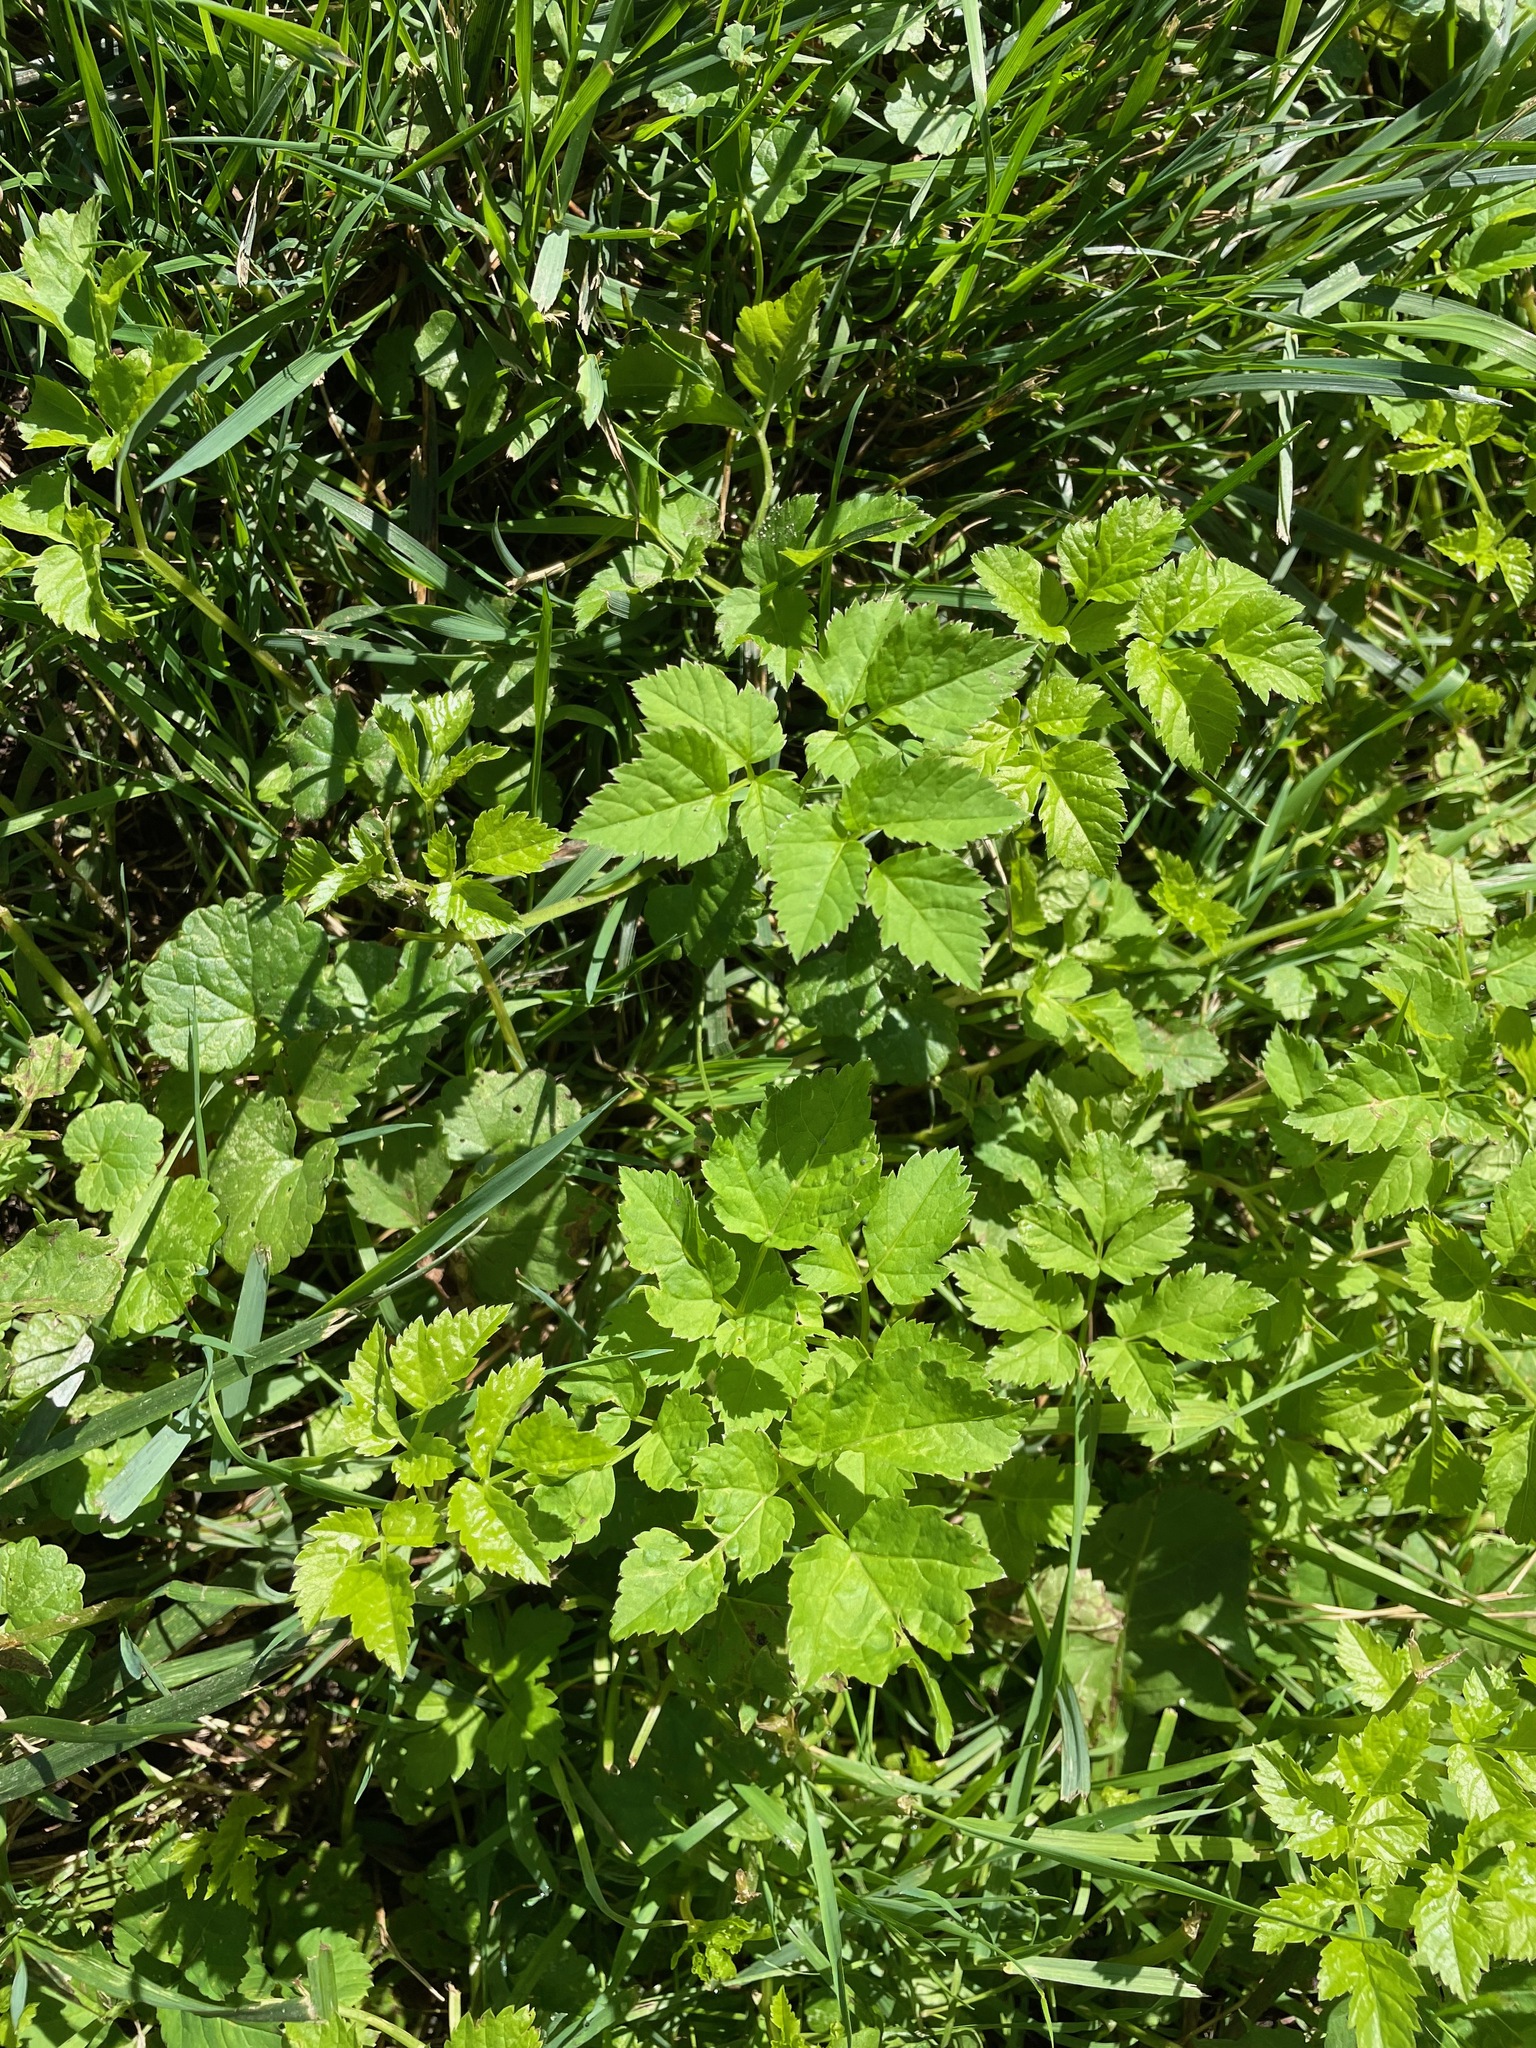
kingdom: Plantae
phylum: Tracheophyta
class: Magnoliopsida
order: Apiales
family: Apiaceae
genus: Aegopodium
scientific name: Aegopodium podagraria
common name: Ground-elder
